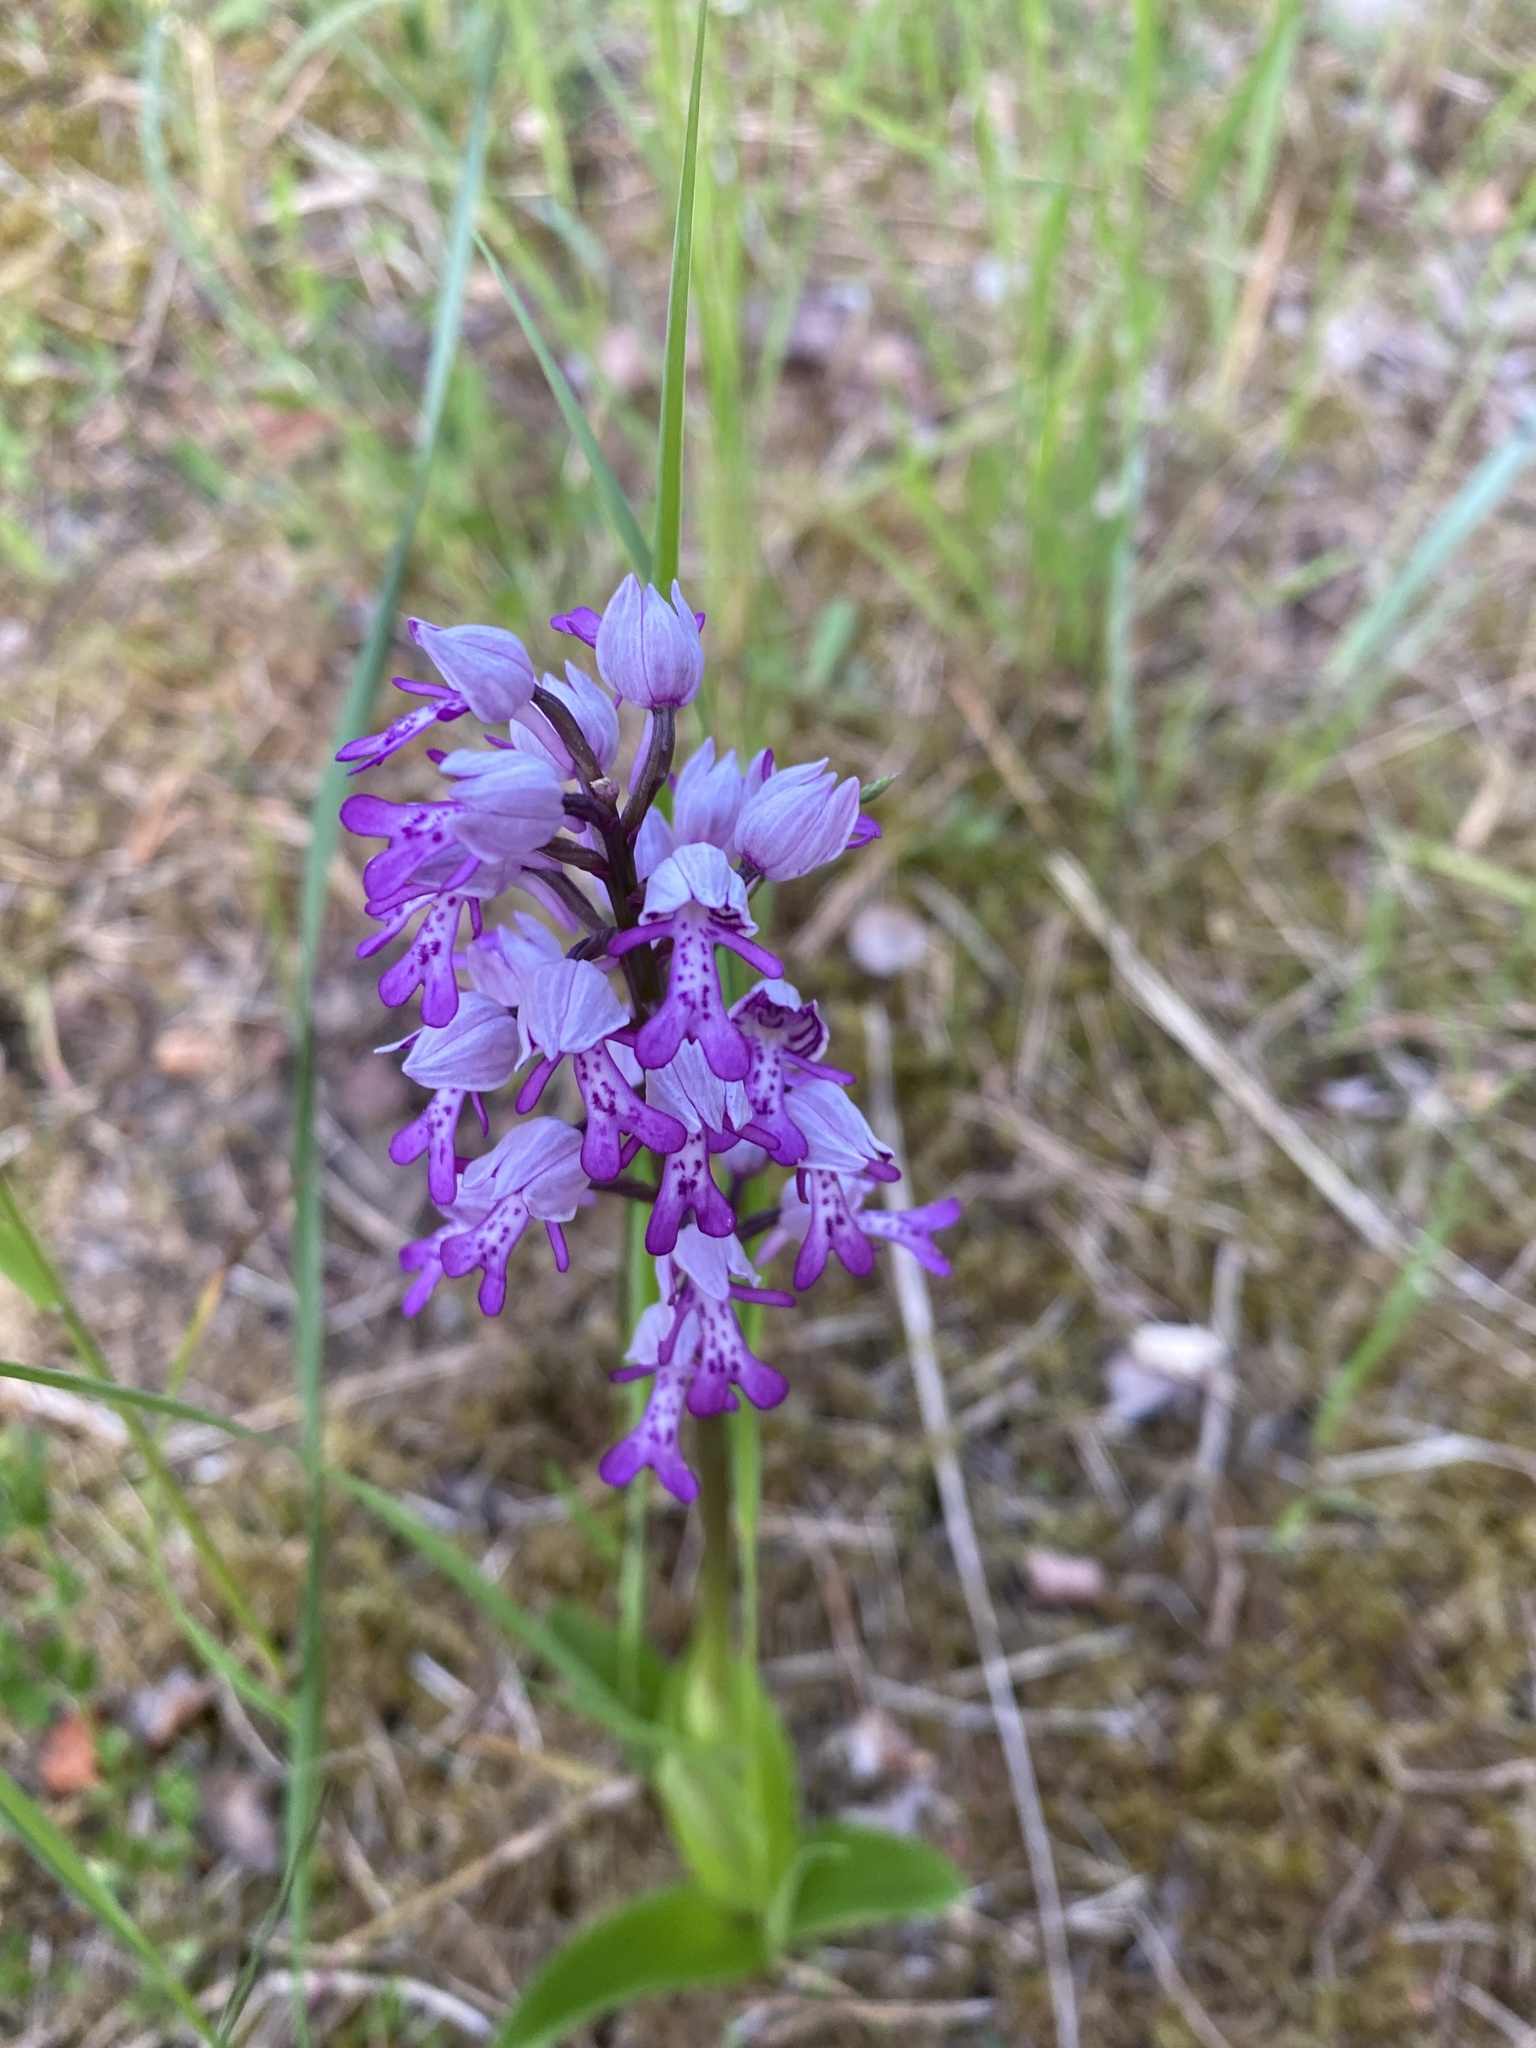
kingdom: Plantae
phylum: Tracheophyta
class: Liliopsida
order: Asparagales
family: Orchidaceae
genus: Orchis
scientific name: Orchis militaris
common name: Military orchid
